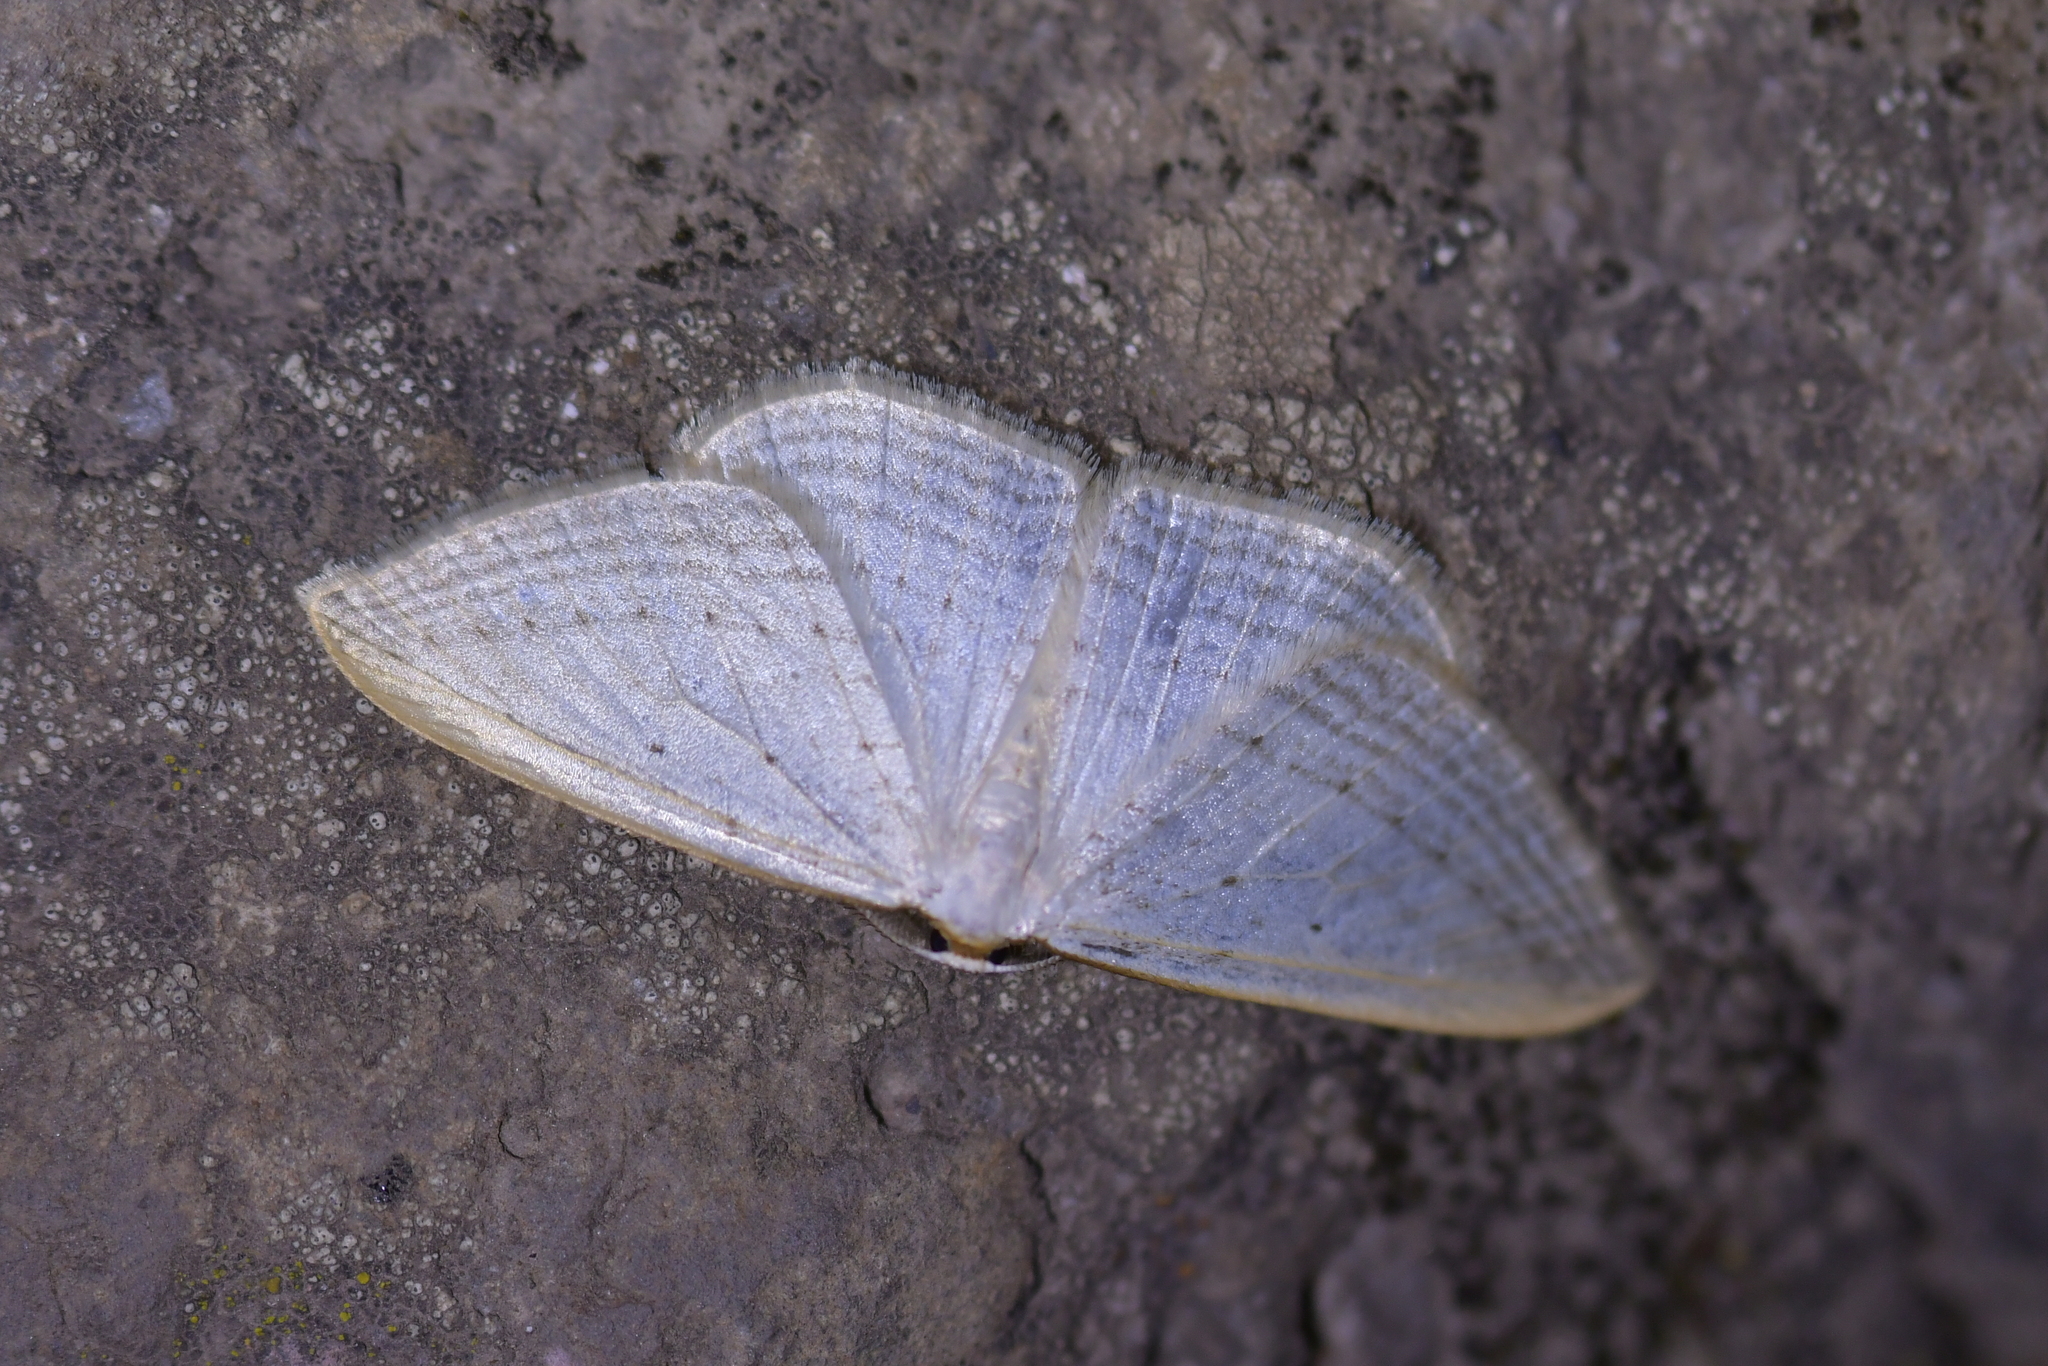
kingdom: Animalia
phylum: Arthropoda
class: Insecta
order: Lepidoptera
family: Geometridae
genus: Orthoclydon
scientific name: Orthoclydon praefectata
